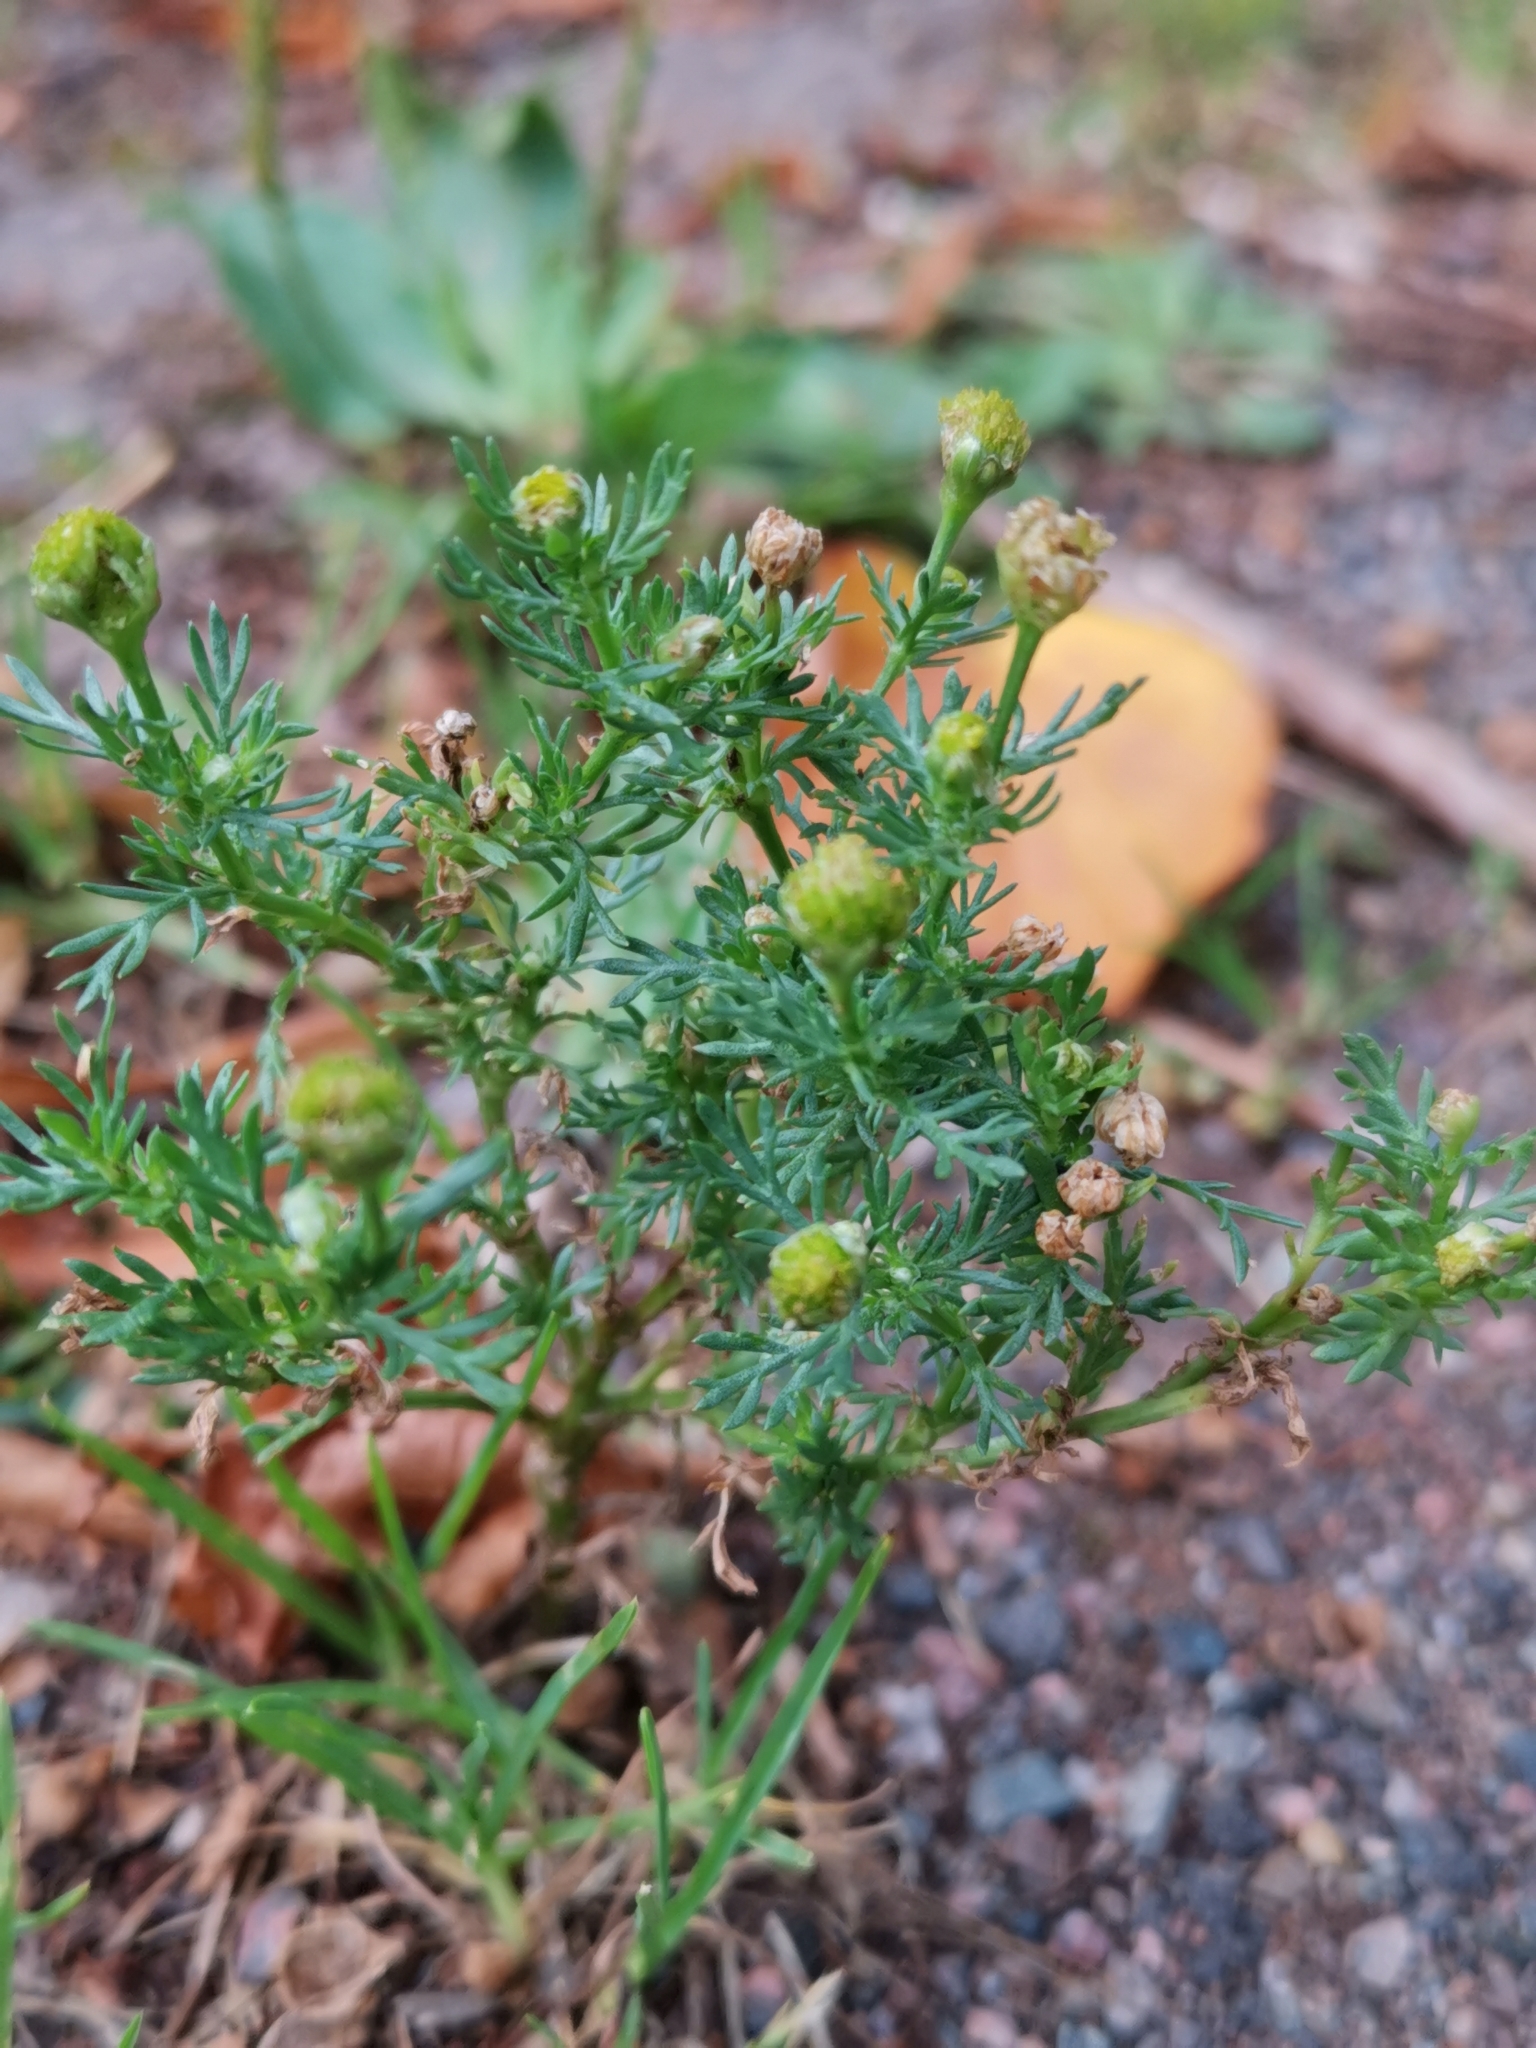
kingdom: Plantae
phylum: Tracheophyta
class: Magnoliopsida
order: Asterales
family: Asteraceae
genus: Matricaria
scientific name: Matricaria discoidea
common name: Disc mayweed
